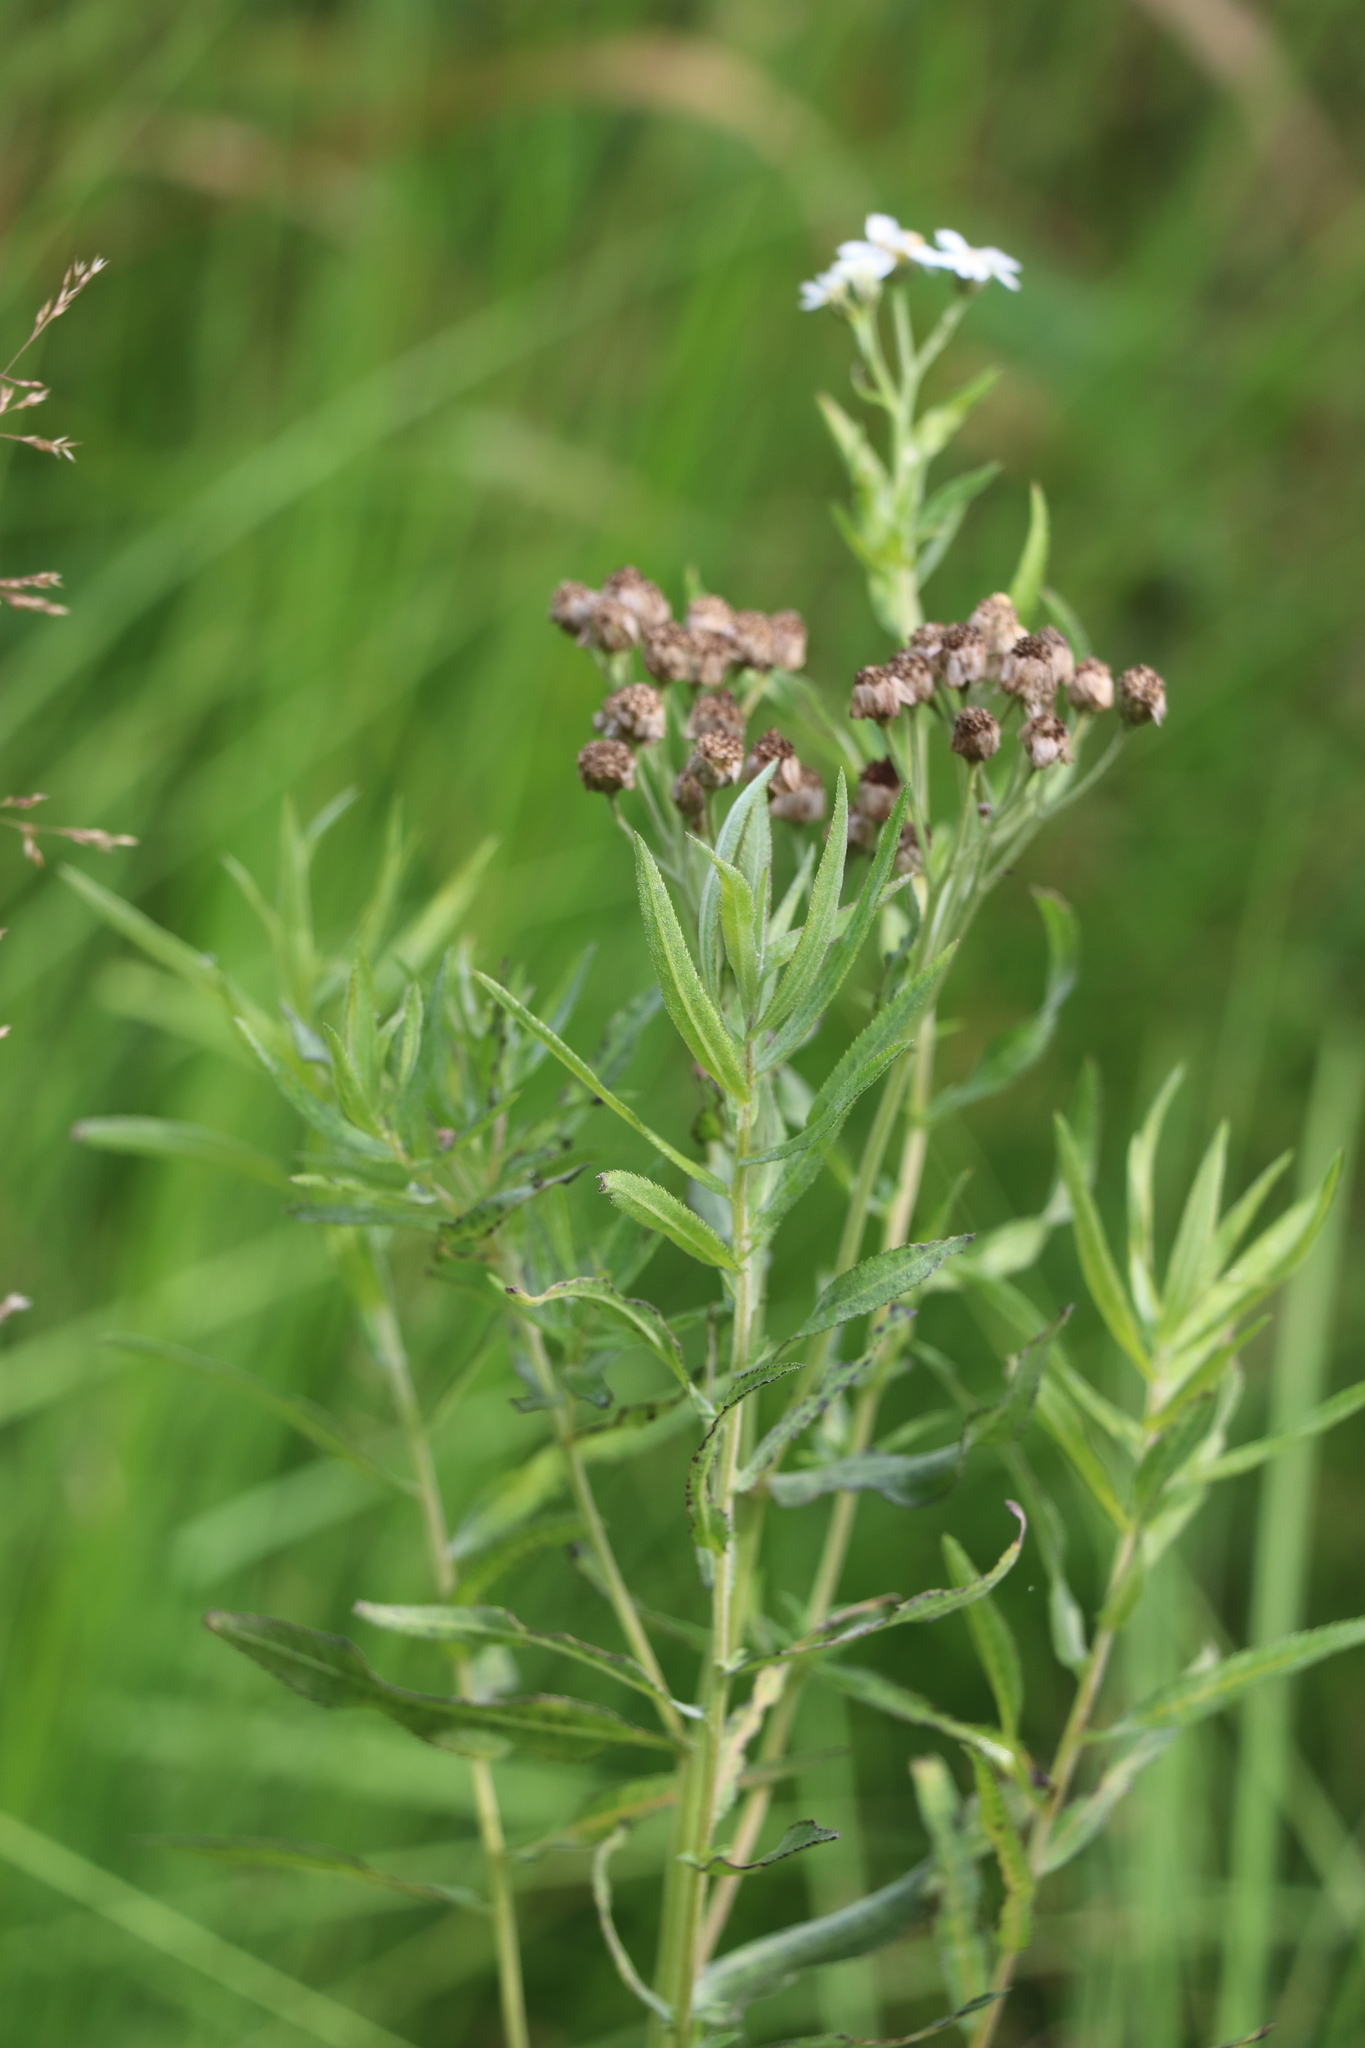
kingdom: Plantae
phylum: Tracheophyta
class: Magnoliopsida
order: Asterales
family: Asteraceae
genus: Achillea
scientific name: Achillea salicifolia
